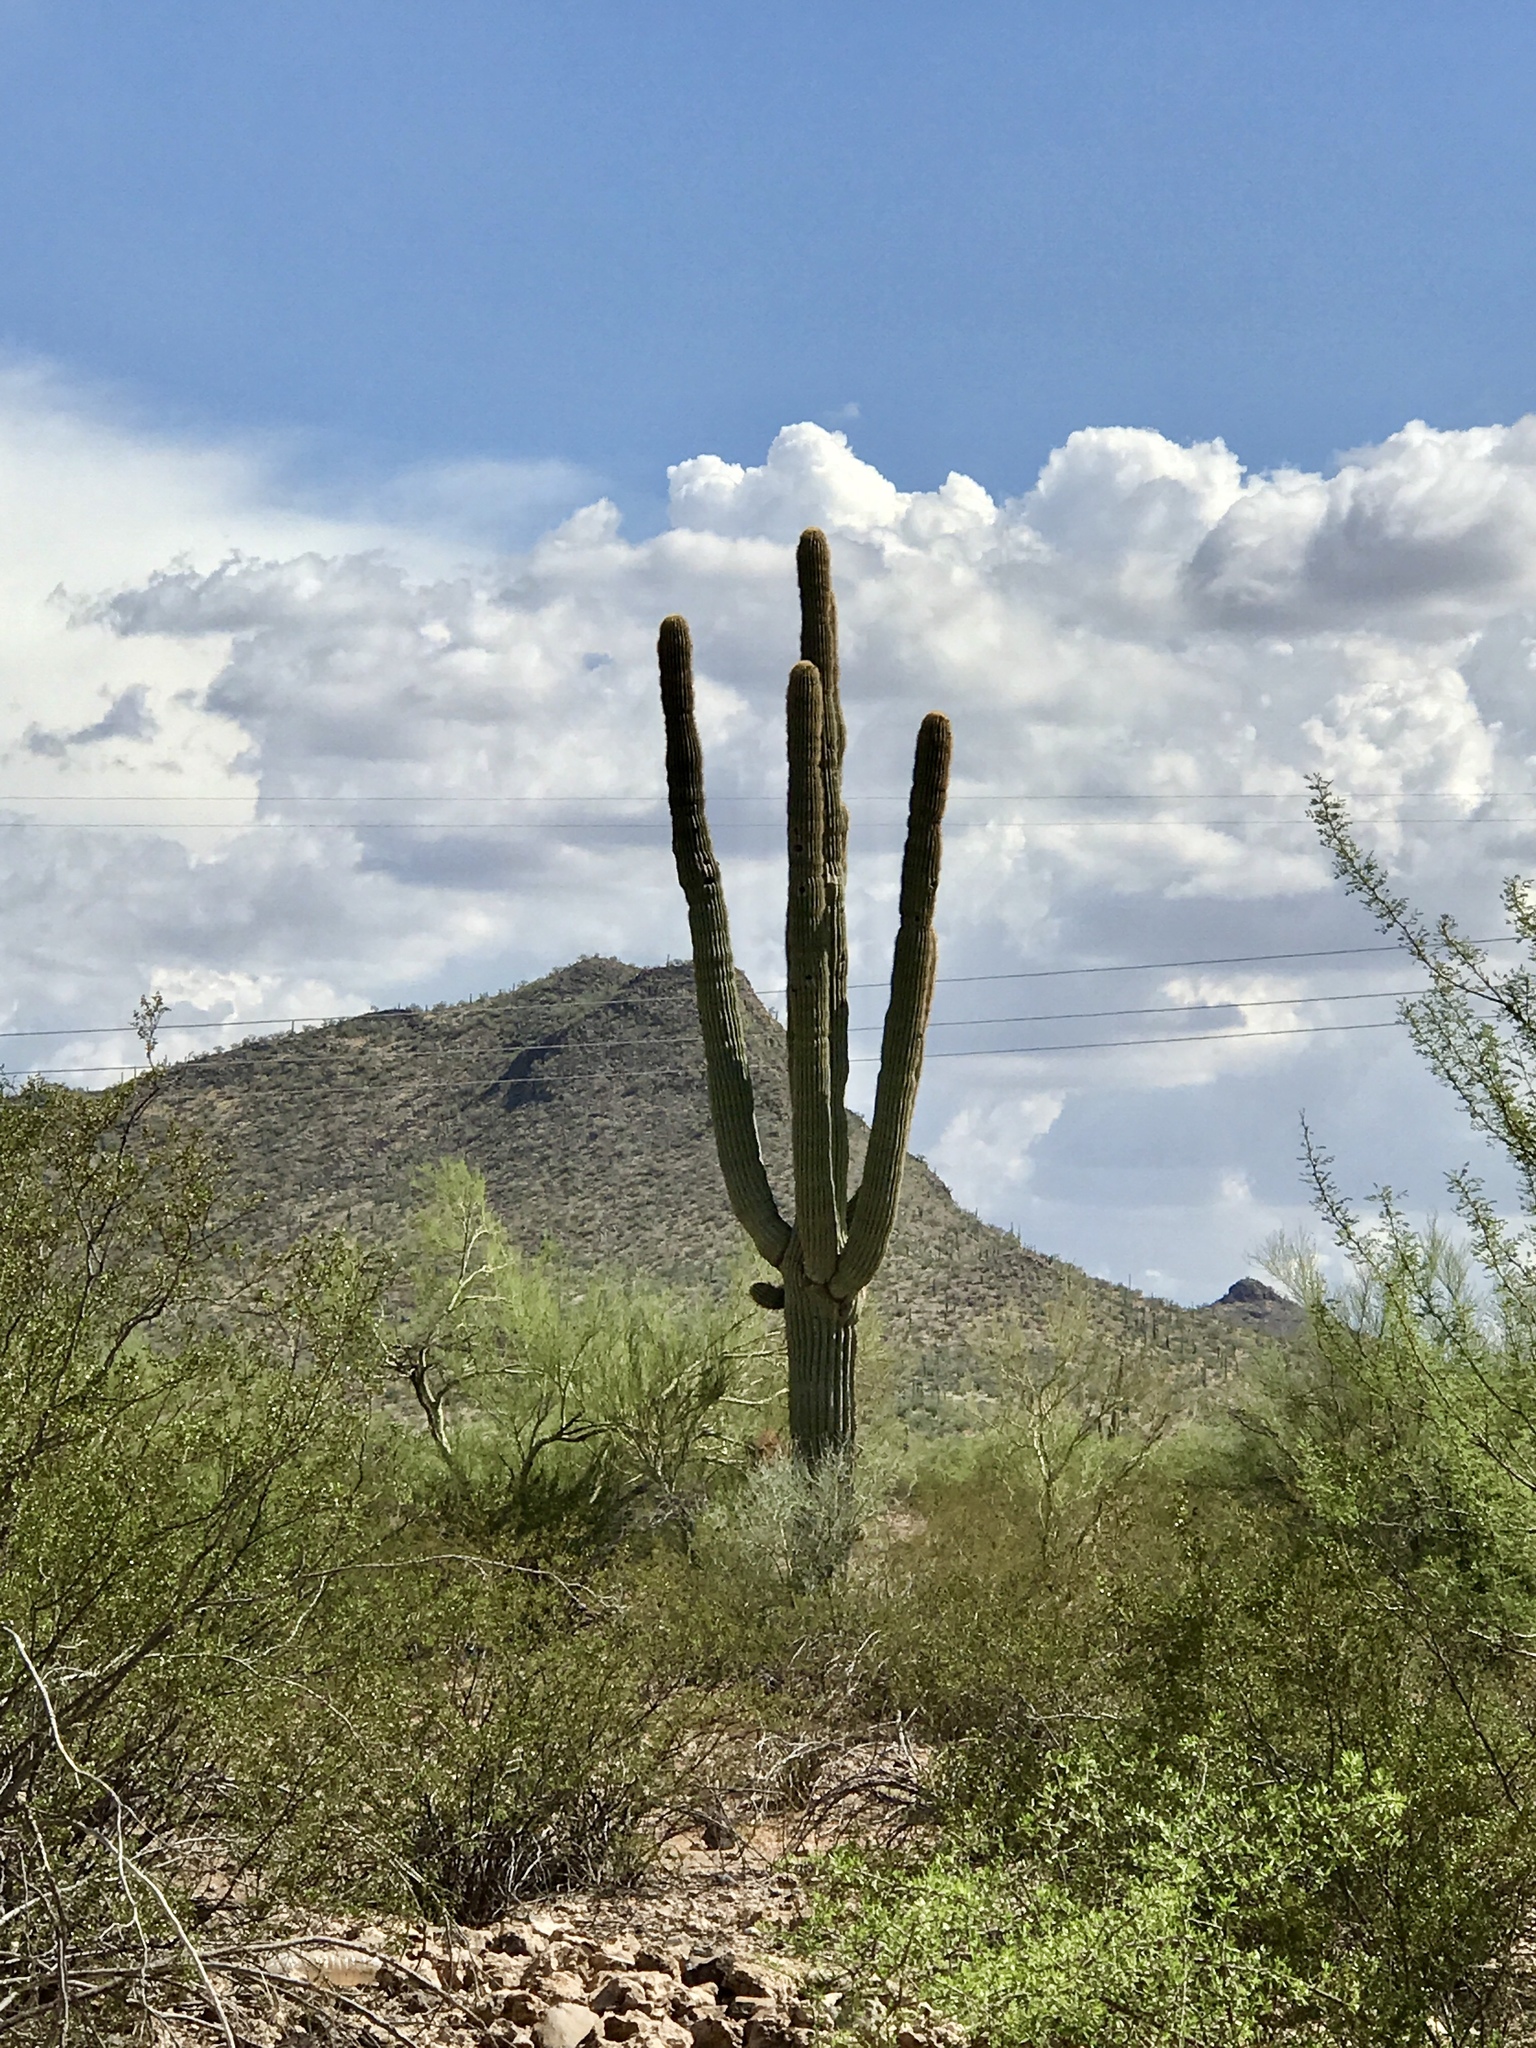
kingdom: Plantae
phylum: Tracheophyta
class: Magnoliopsida
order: Caryophyllales
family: Cactaceae
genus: Carnegiea
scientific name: Carnegiea gigantea
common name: Saguaro
